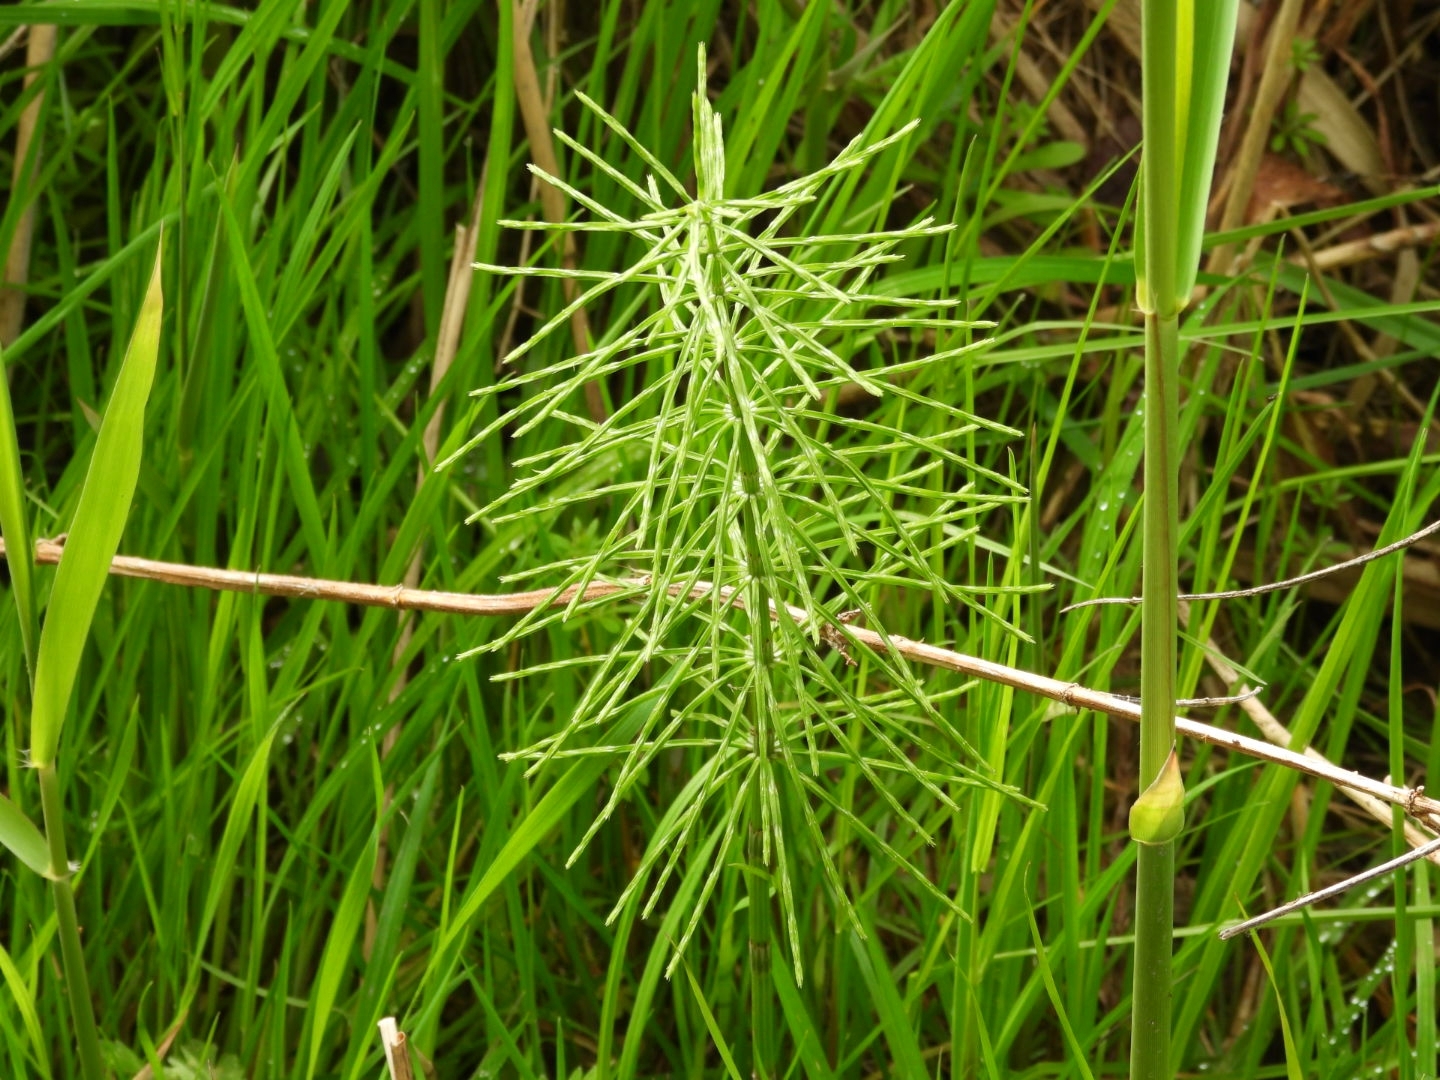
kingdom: Plantae
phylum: Tracheophyta
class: Polypodiopsida
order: Equisetales
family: Equisetaceae
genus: Equisetum
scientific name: Equisetum sylvaticum
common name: Wood horsetail
